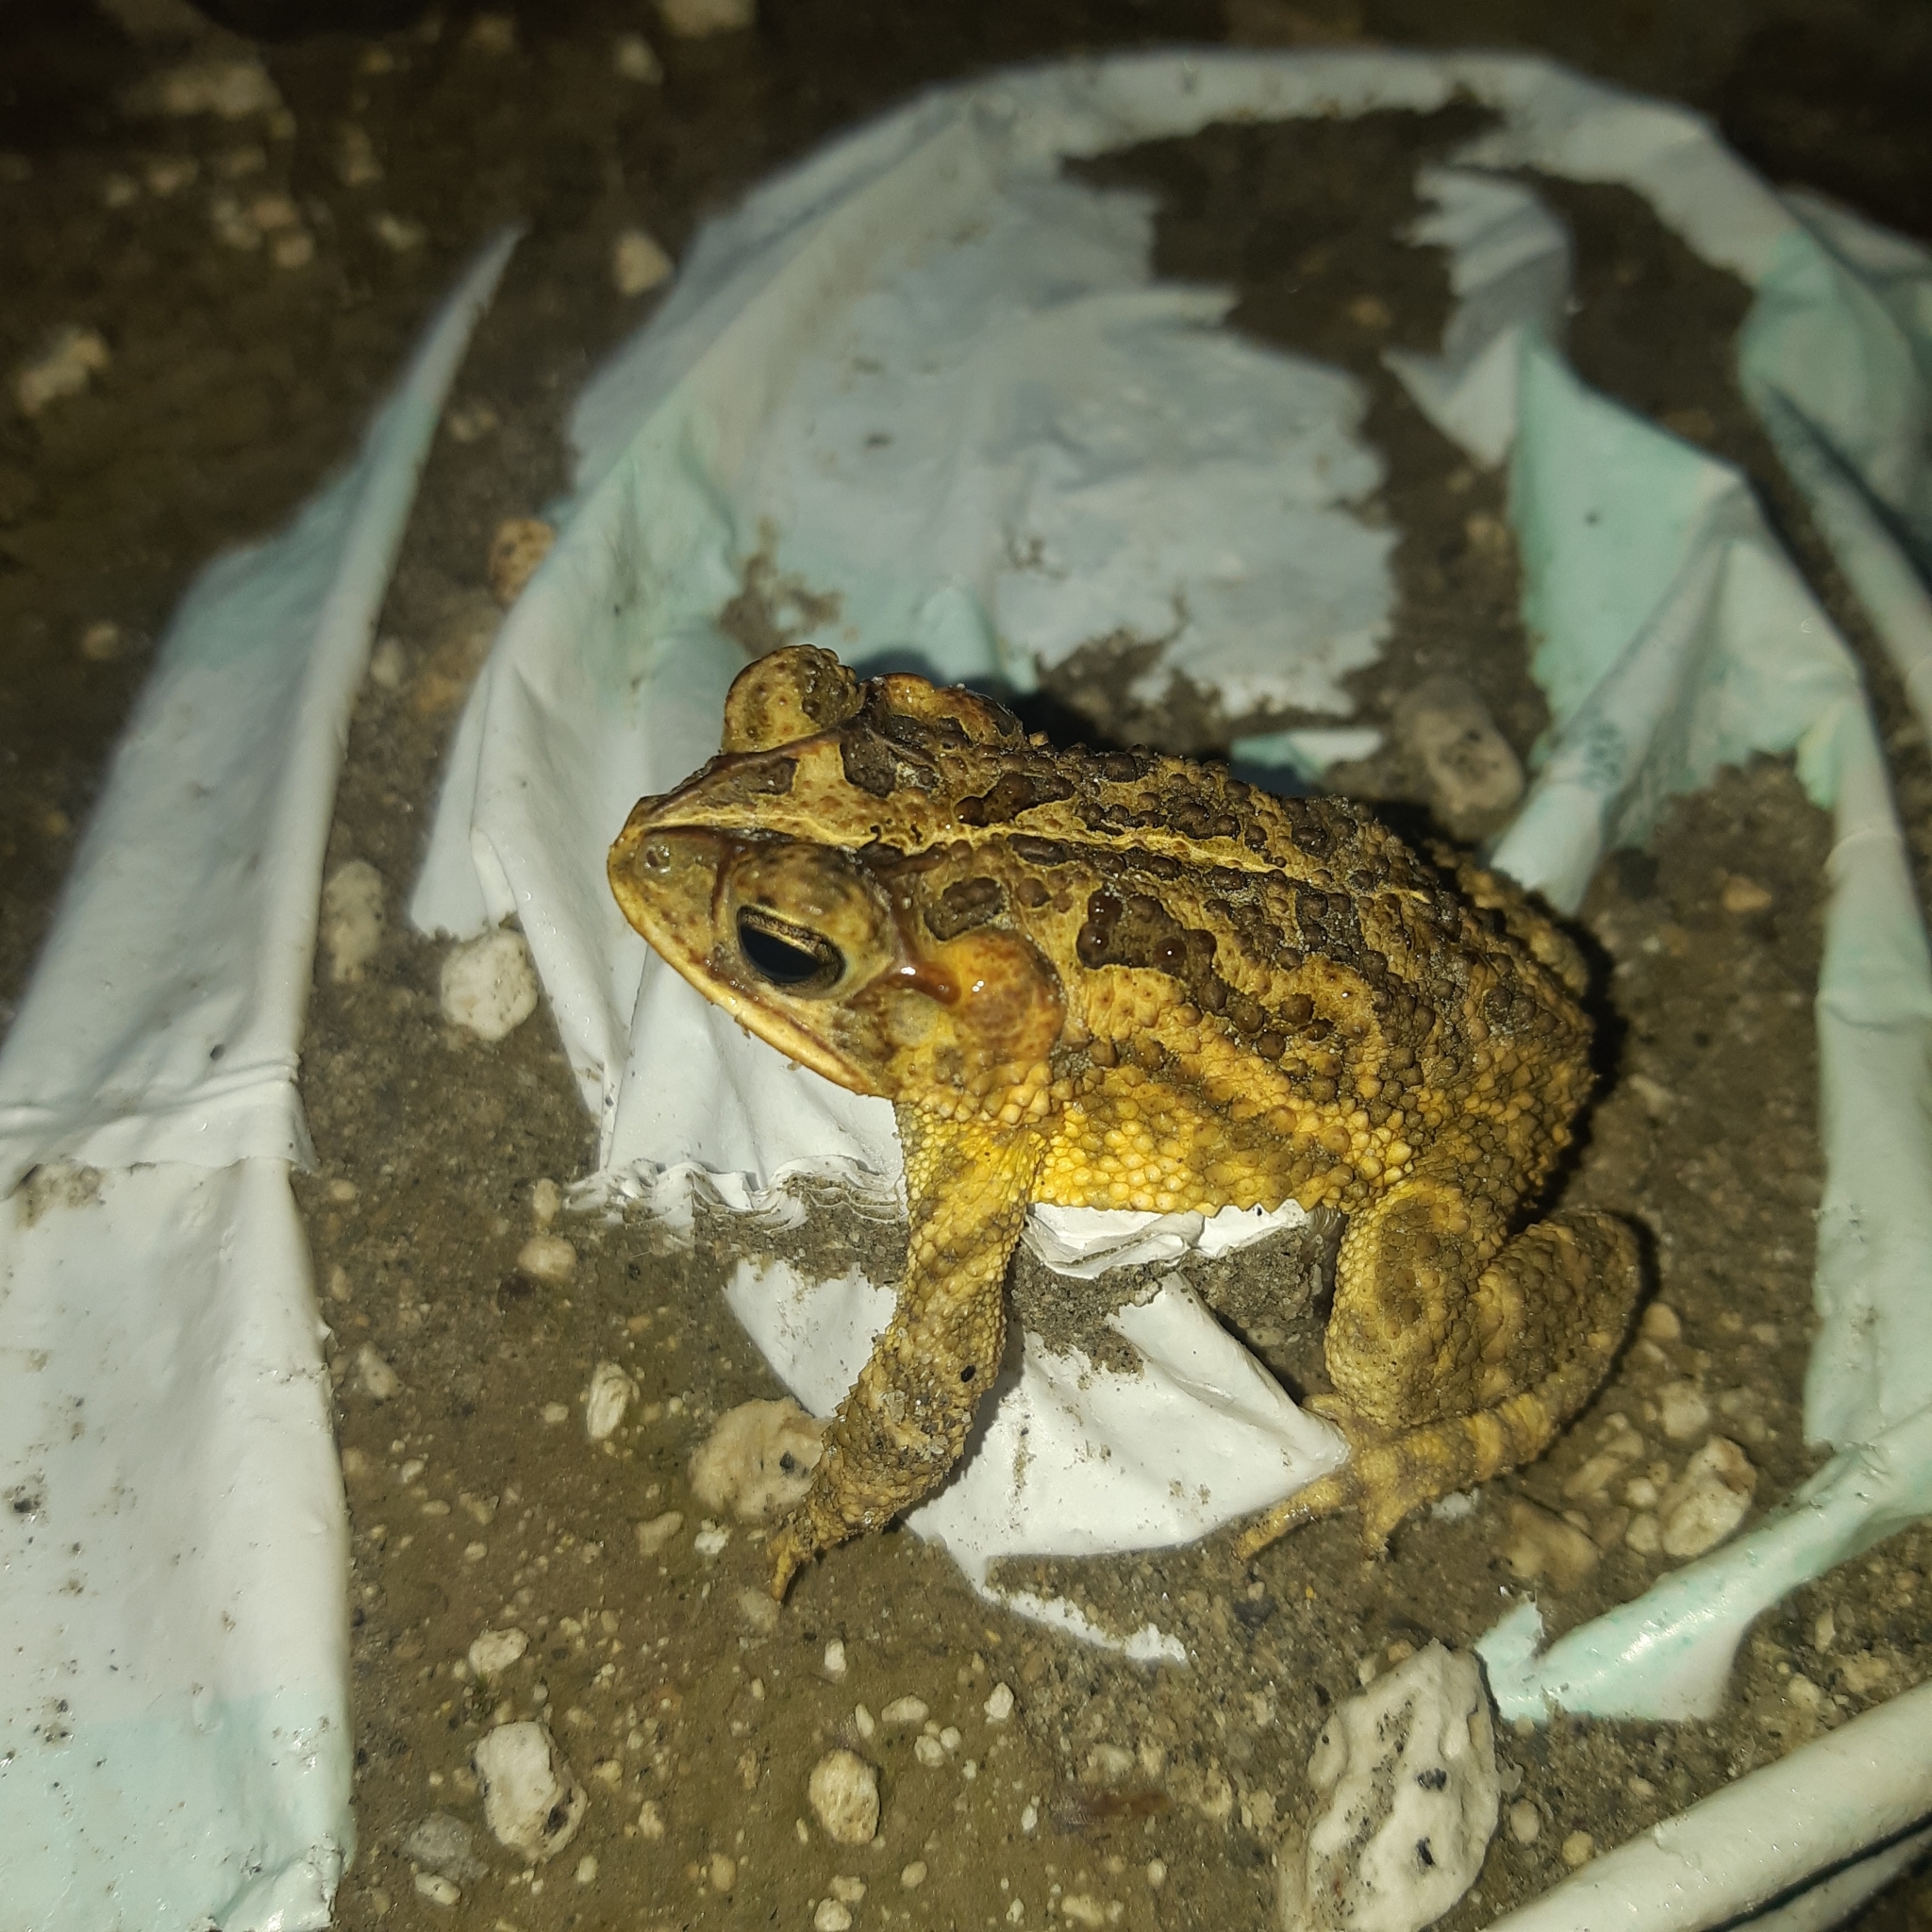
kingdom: Animalia
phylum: Chordata
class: Amphibia
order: Anura
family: Bufonidae
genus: Incilius
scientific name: Incilius coccifer
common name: Southern round-gland toad
